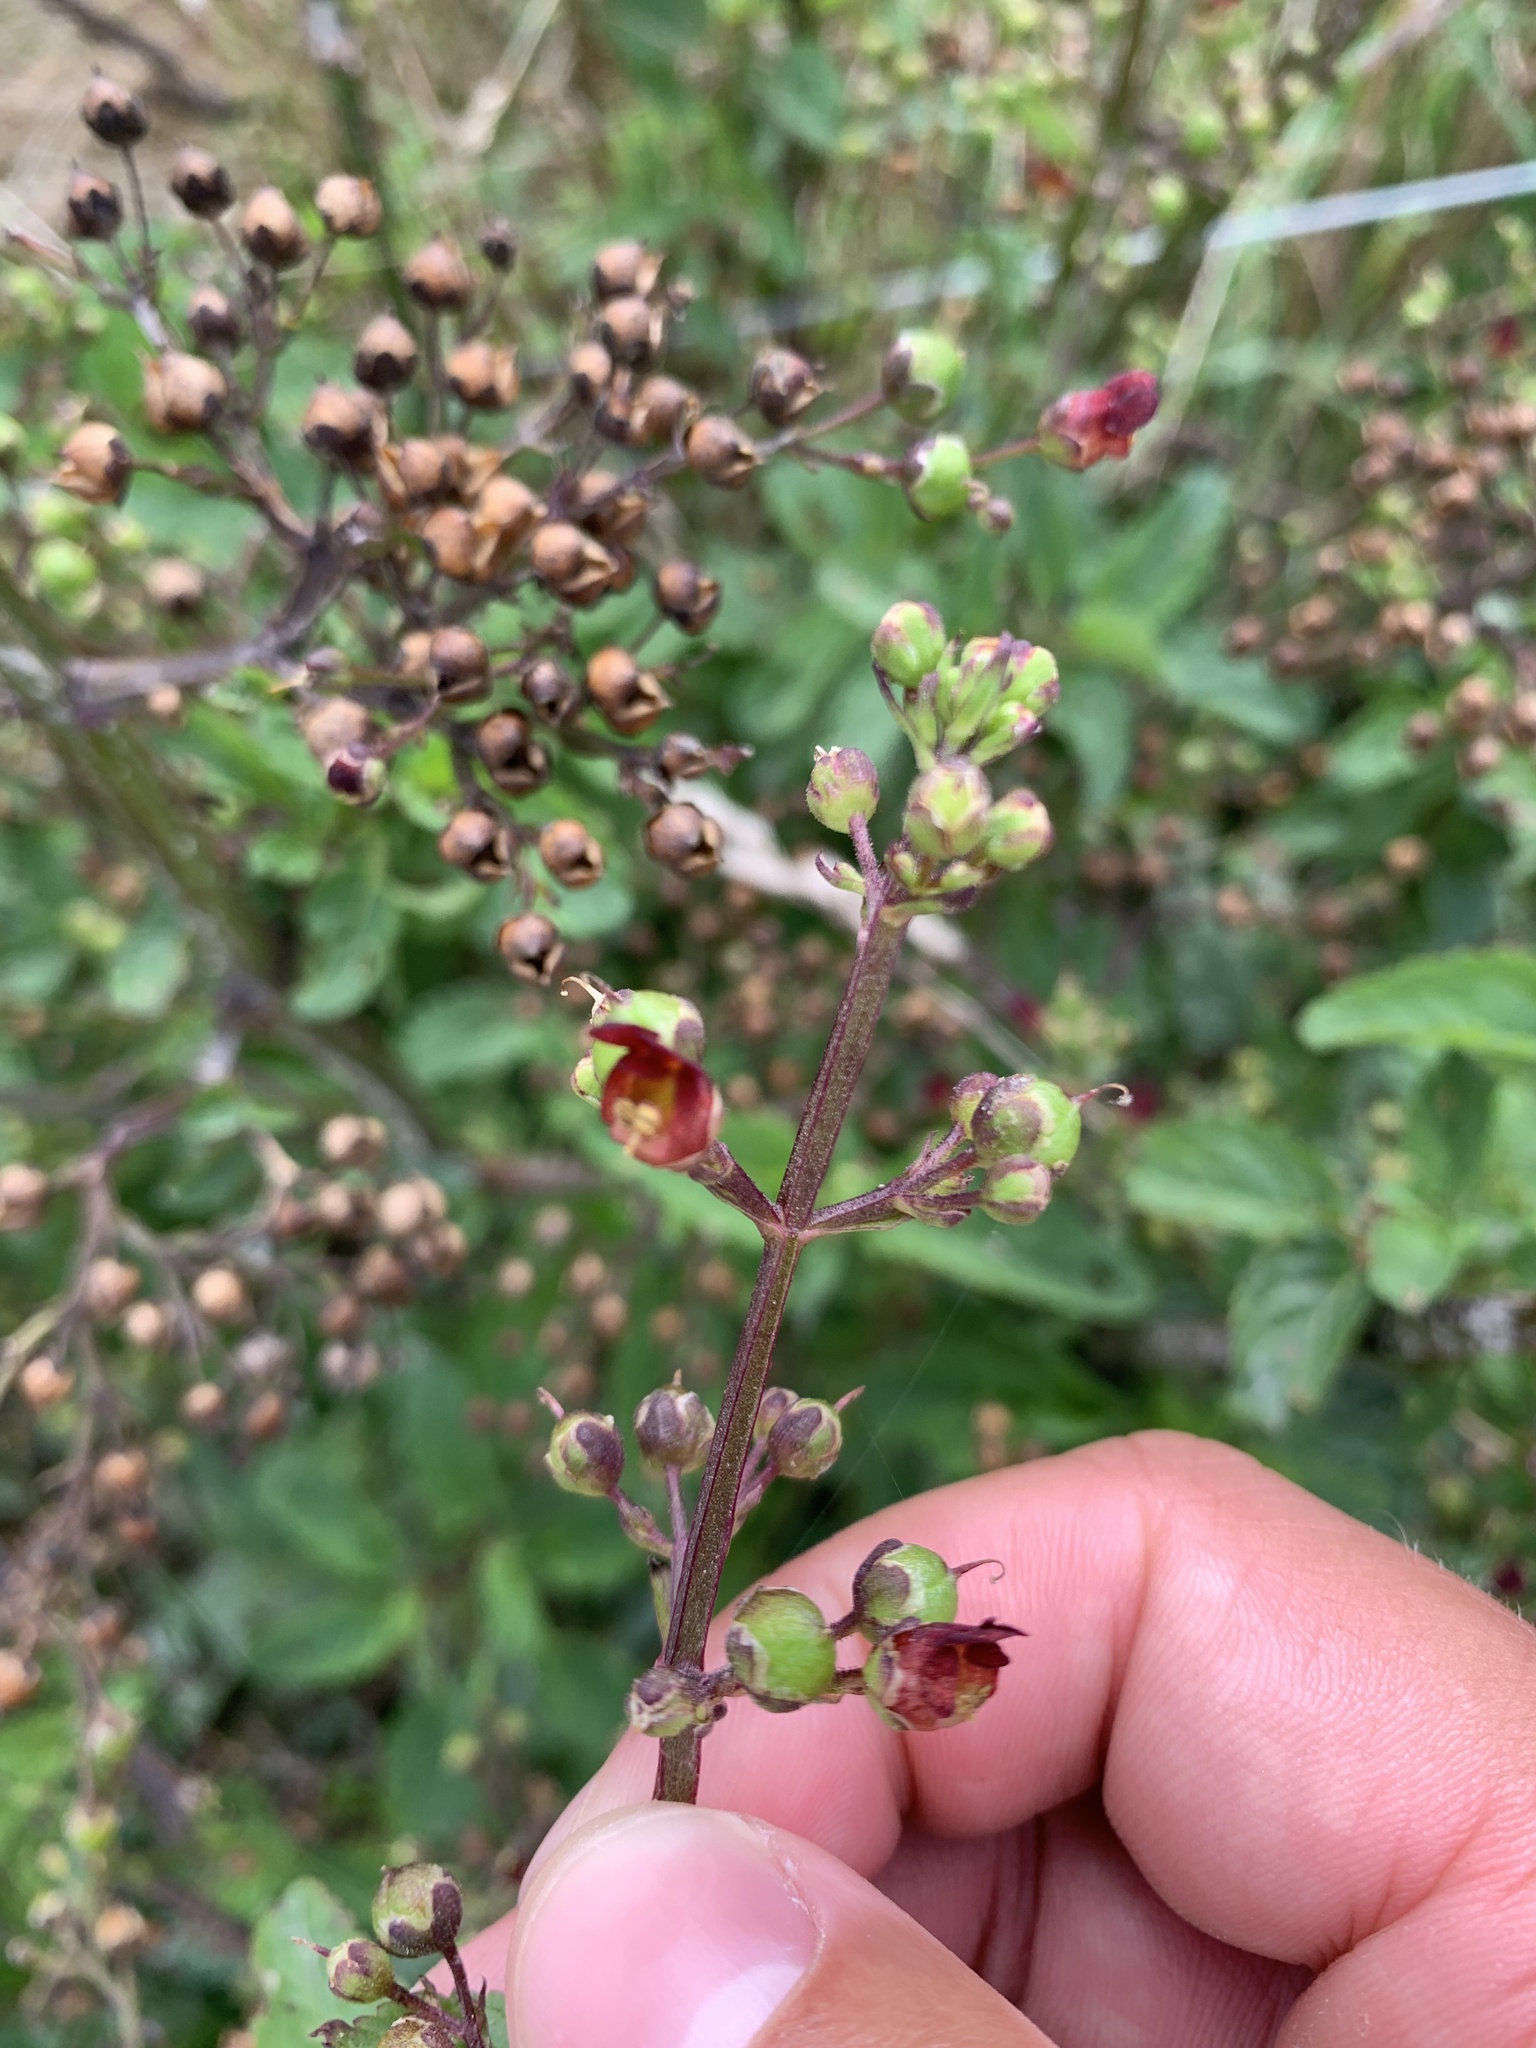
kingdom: Plantae
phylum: Tracheophyta
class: Magnoliopsida
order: Lamiales
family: Scrophulariaceae
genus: Scrophularia
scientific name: Scrophularia nodosa
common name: Common figwort
